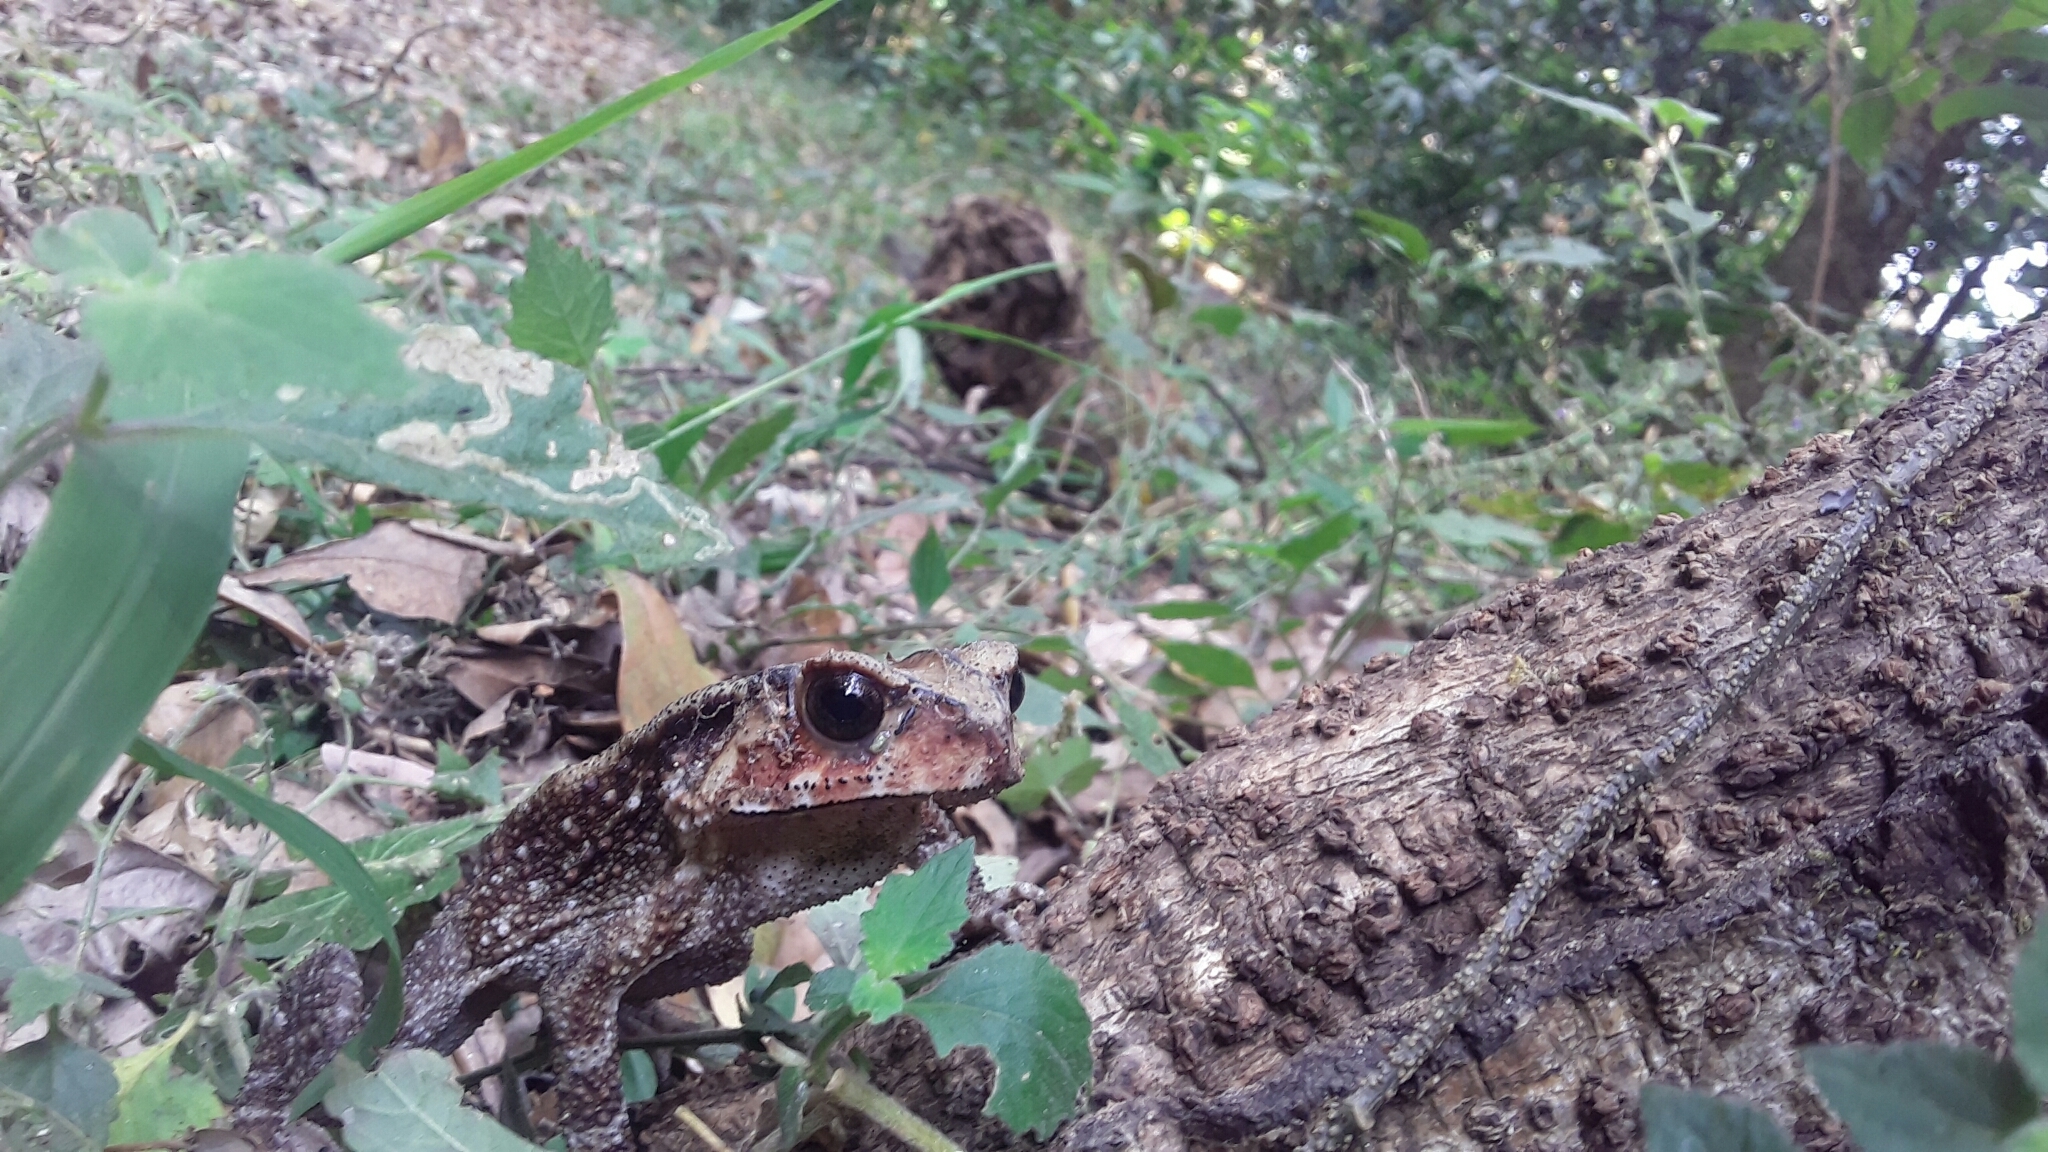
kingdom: Animalia
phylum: Chordata
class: Amphibia
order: Anura
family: Bufonidae
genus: Duttaphrynus
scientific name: Duttaphrynus parietalis
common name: Indian toad
